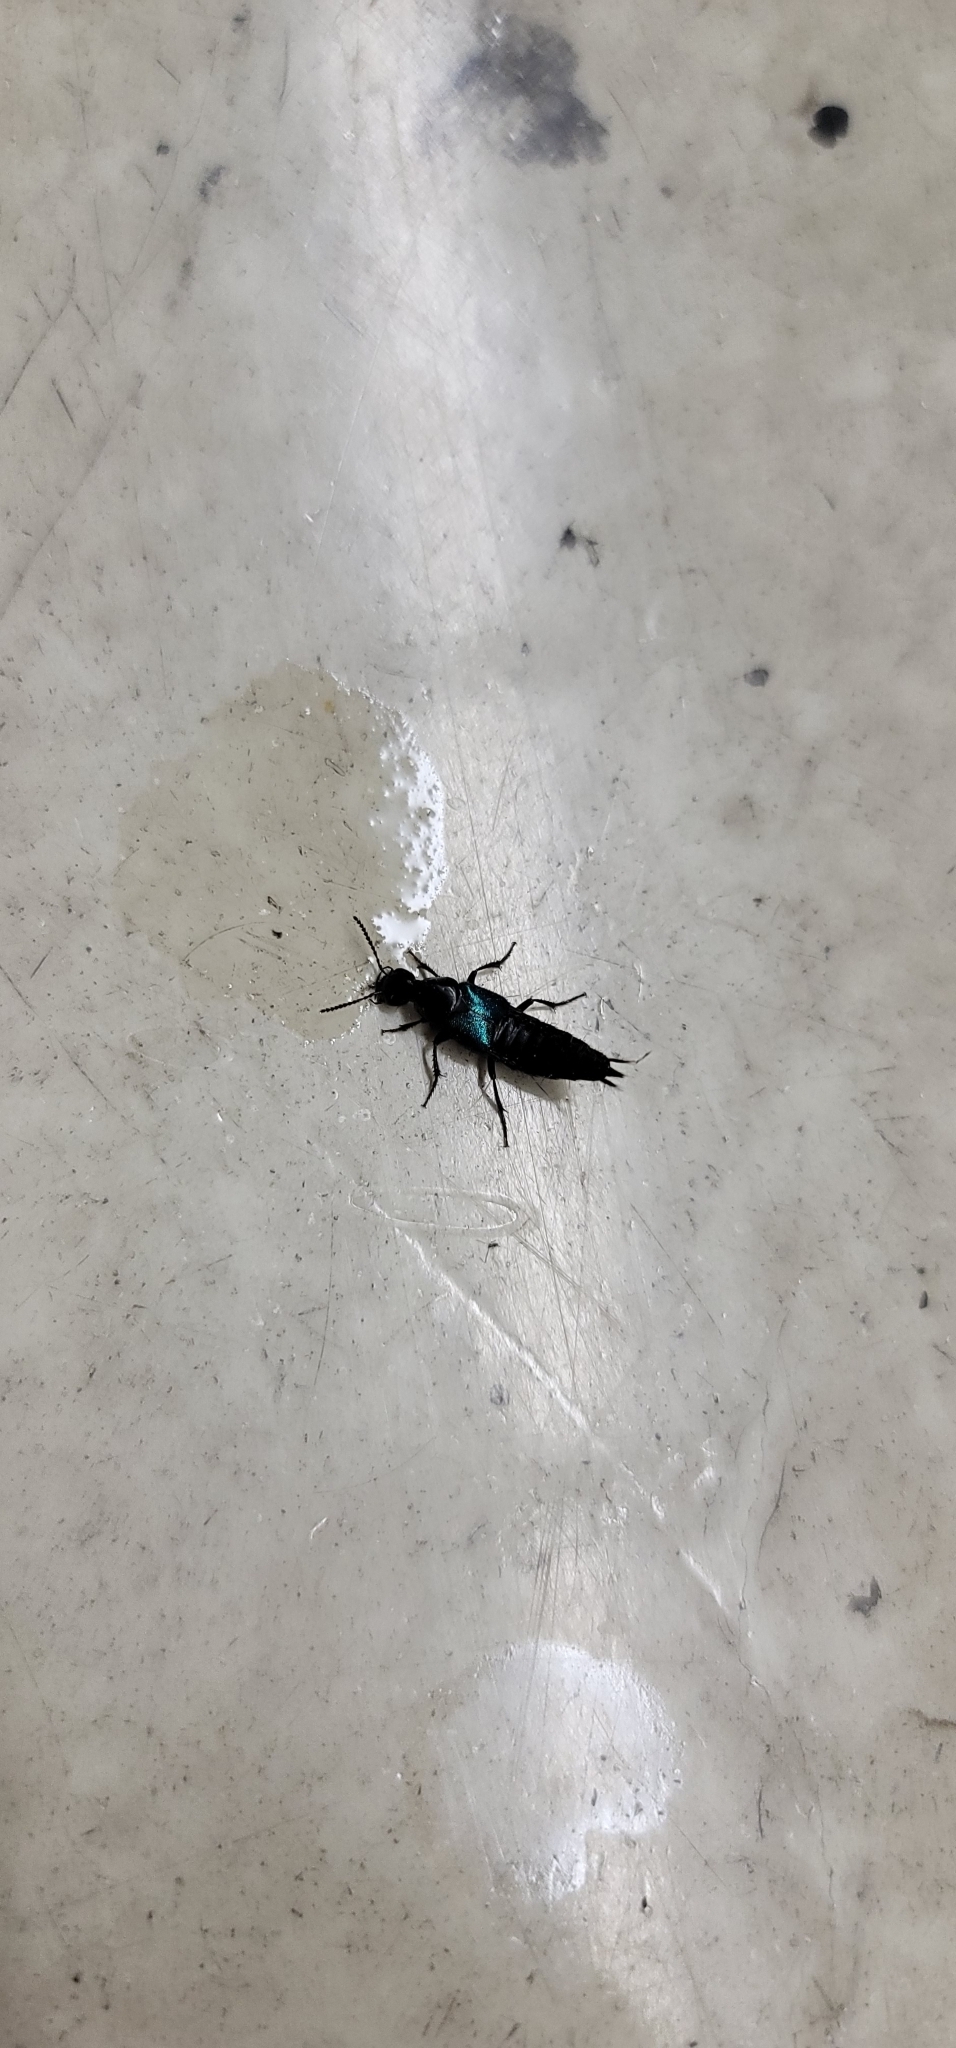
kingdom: Animalia
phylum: Arthropoda
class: Insecta
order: Coleoptera
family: Staphylinidae
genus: Philonthus
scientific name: Philonthus caeruleipennis
